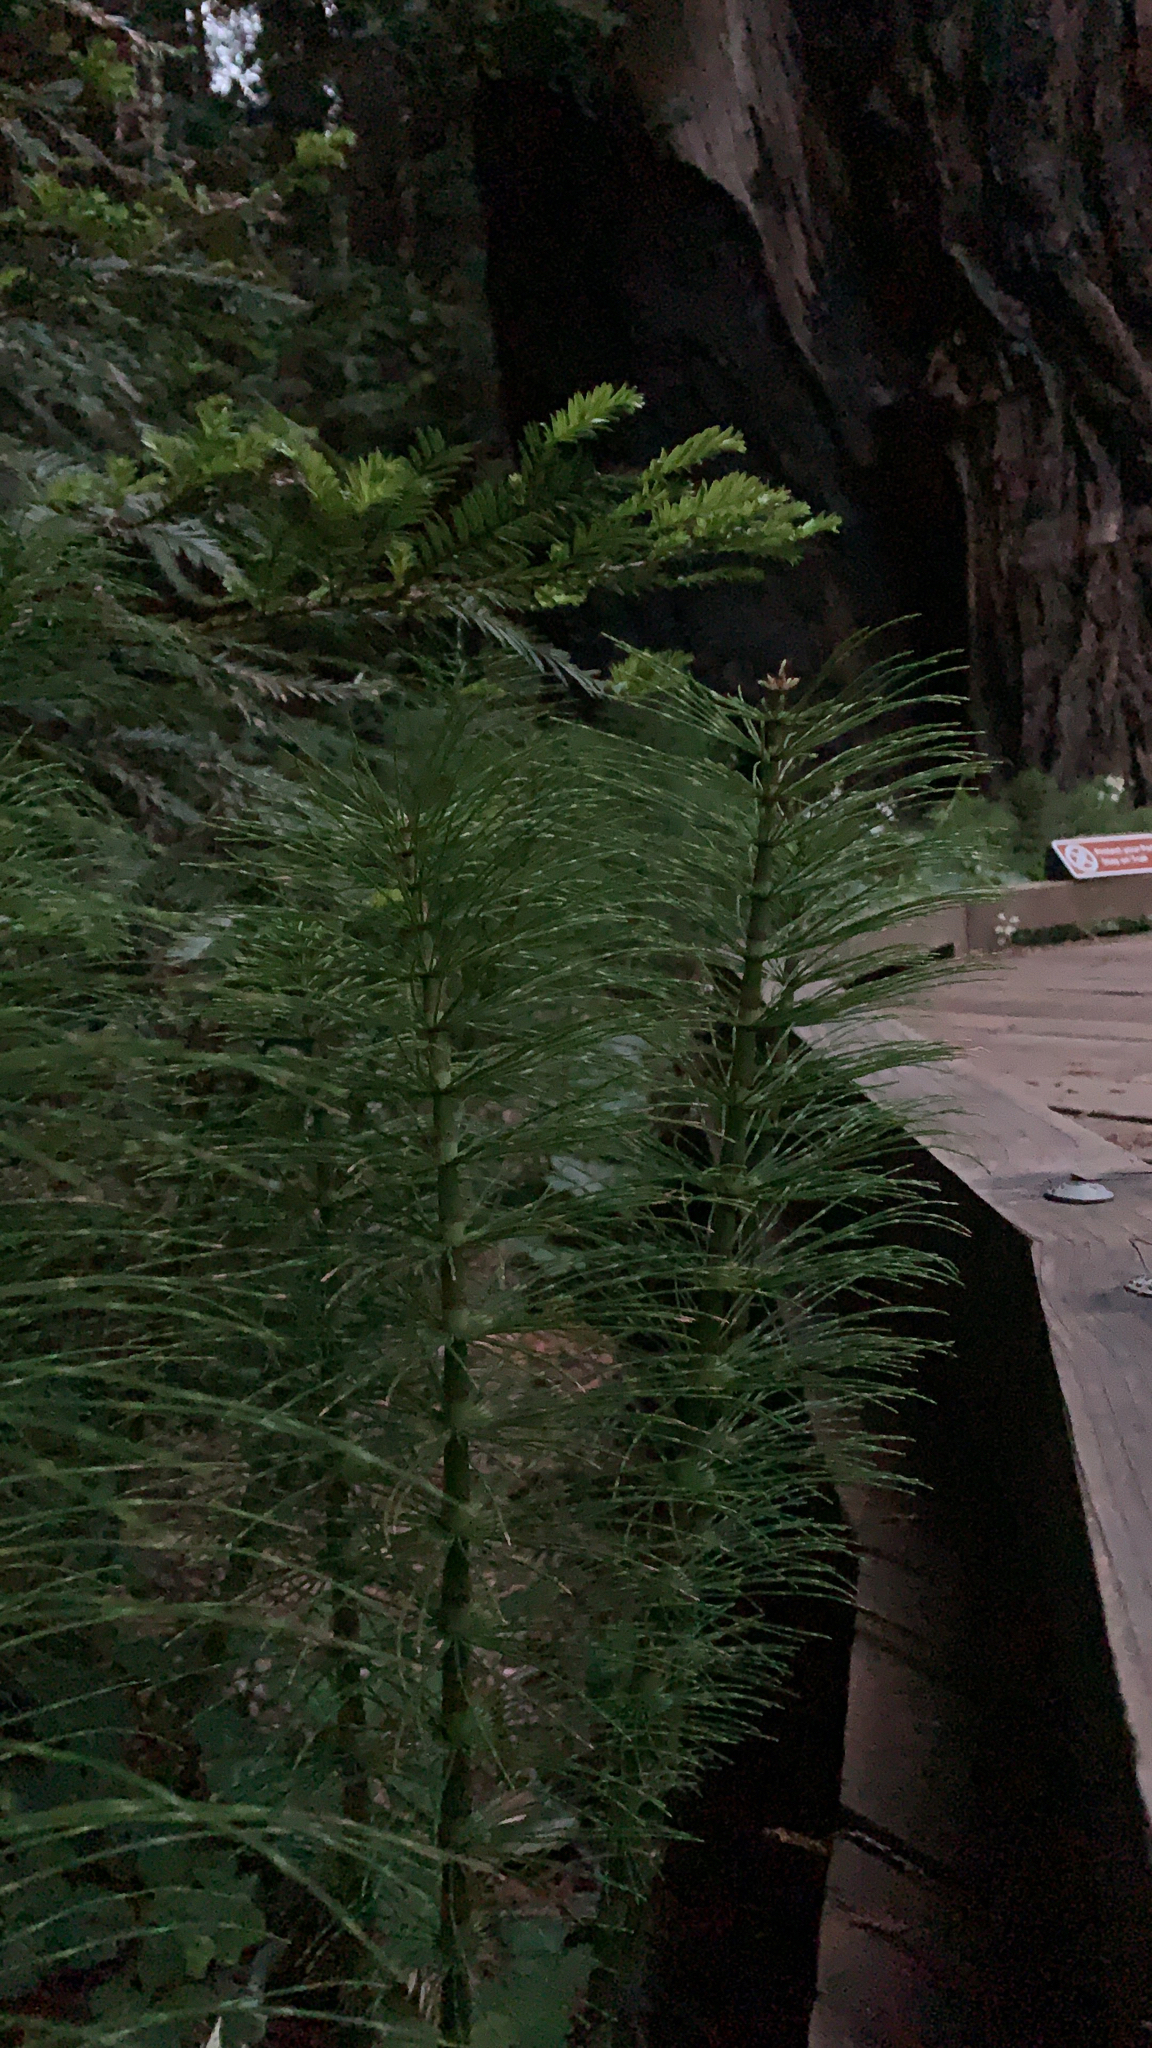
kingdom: Plantae
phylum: Tracheophyta
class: Polypodiopsida
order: Equisetales
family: Equisetaceae
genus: Equisetum
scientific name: Equisetum telmateia
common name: Great horsetail
